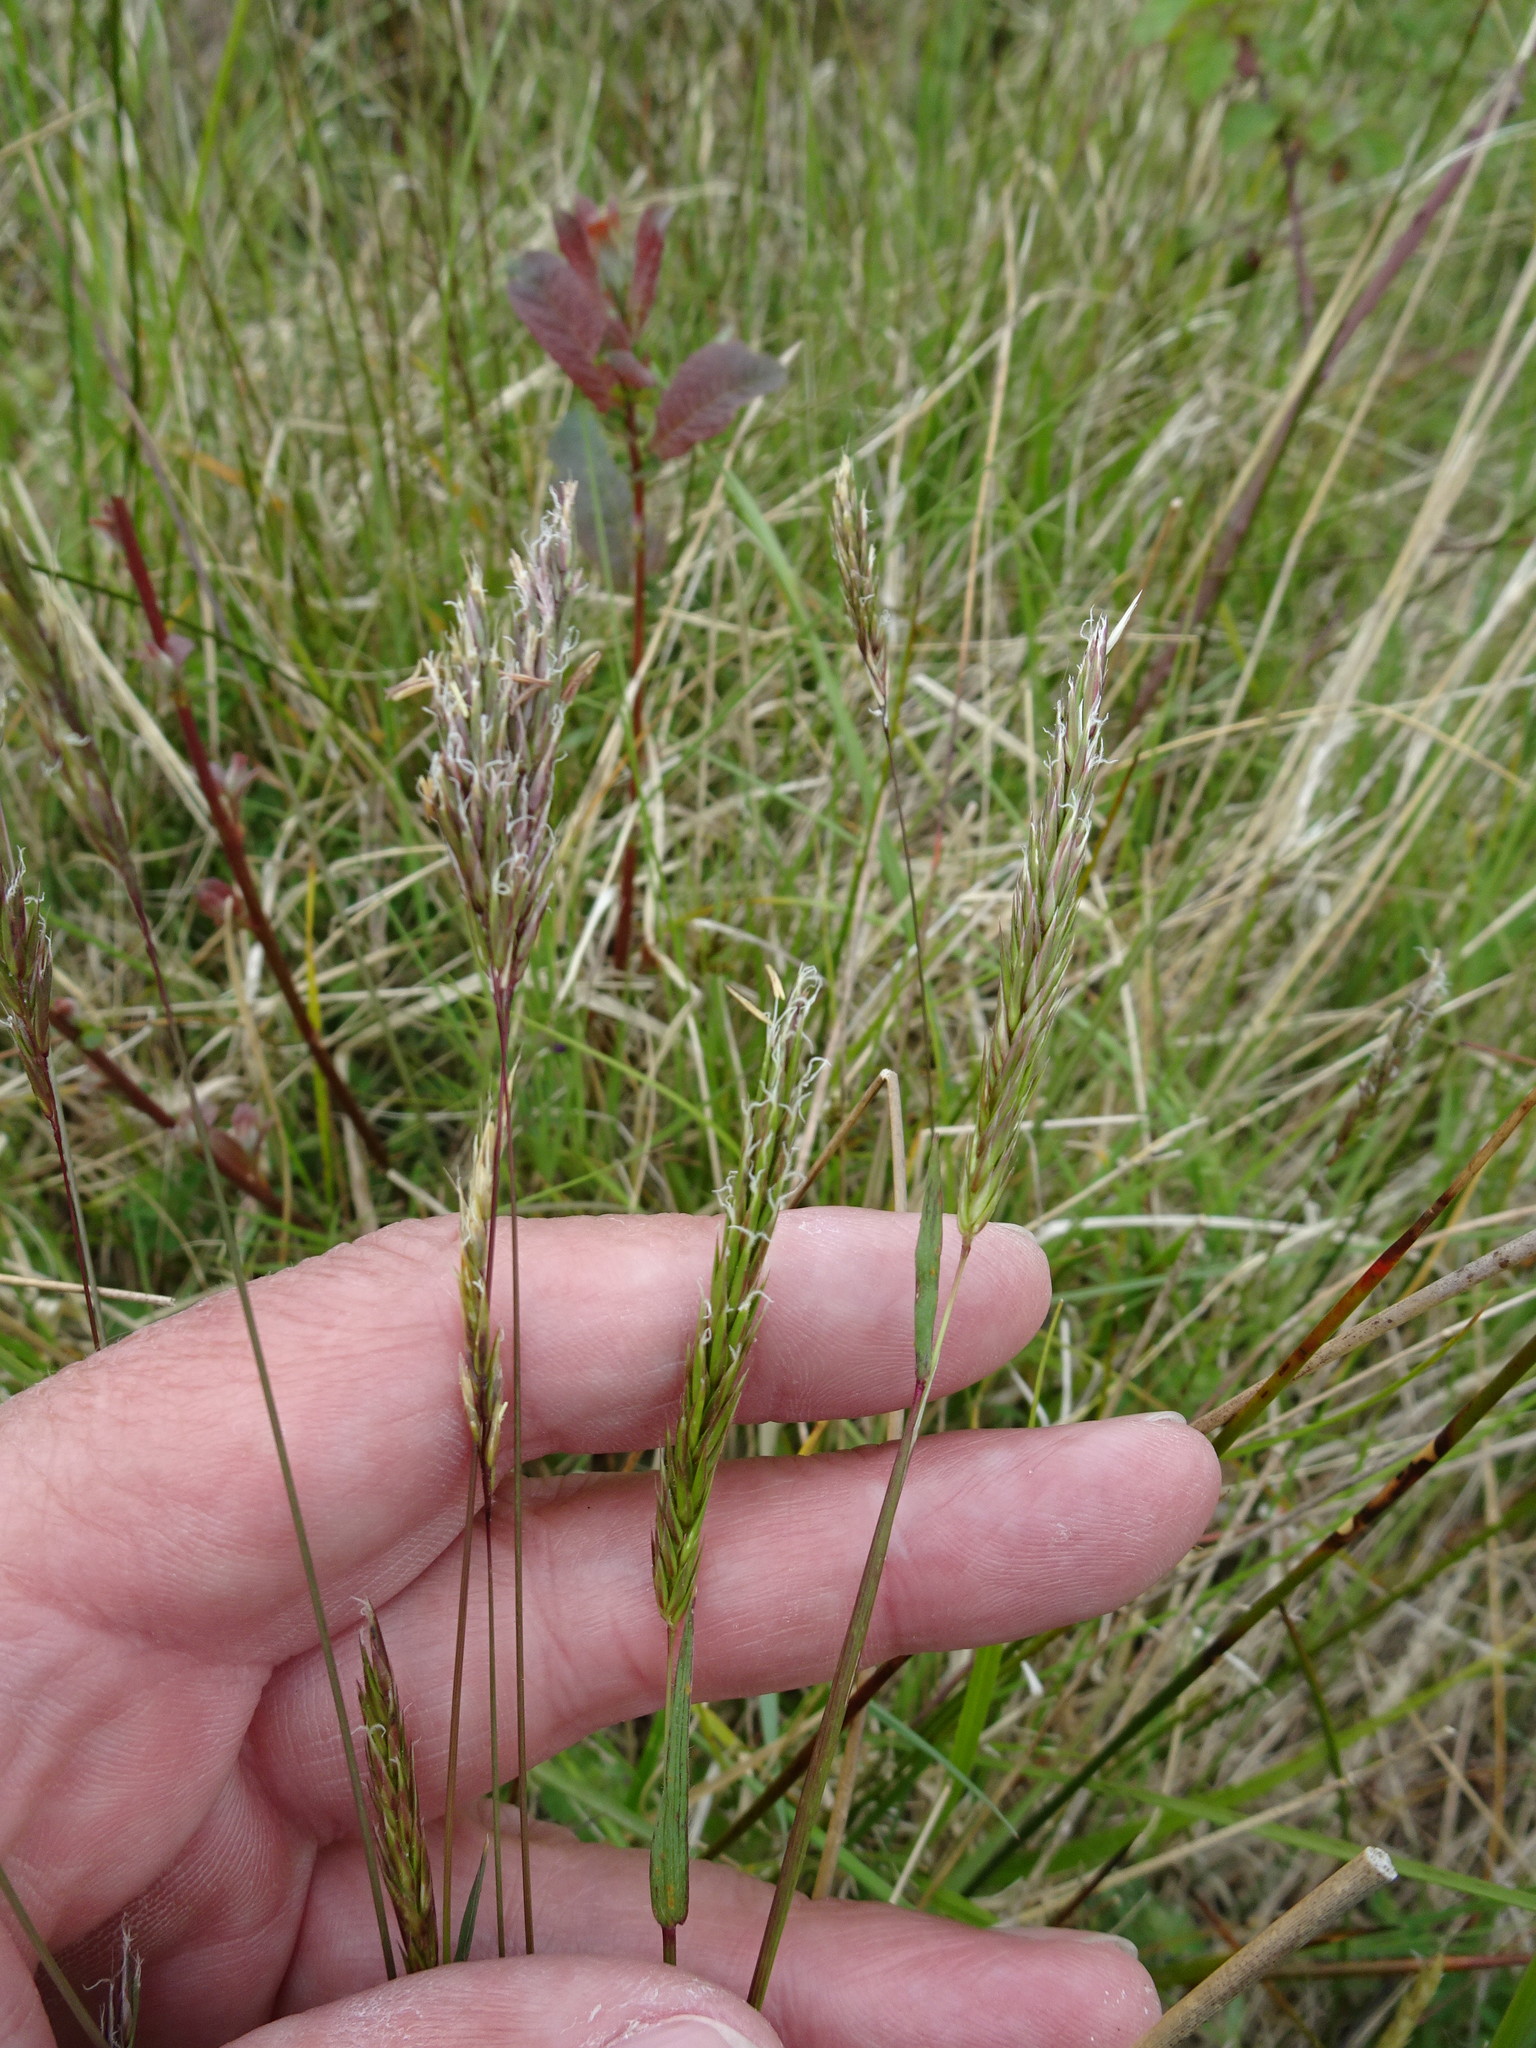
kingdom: Plantae
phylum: Tracheophyta
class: Liliopsida
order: Poales
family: Poaceae
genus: Anthoxanthum
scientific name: Anthoxanthum odoratum
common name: Sweet vernalgrass
